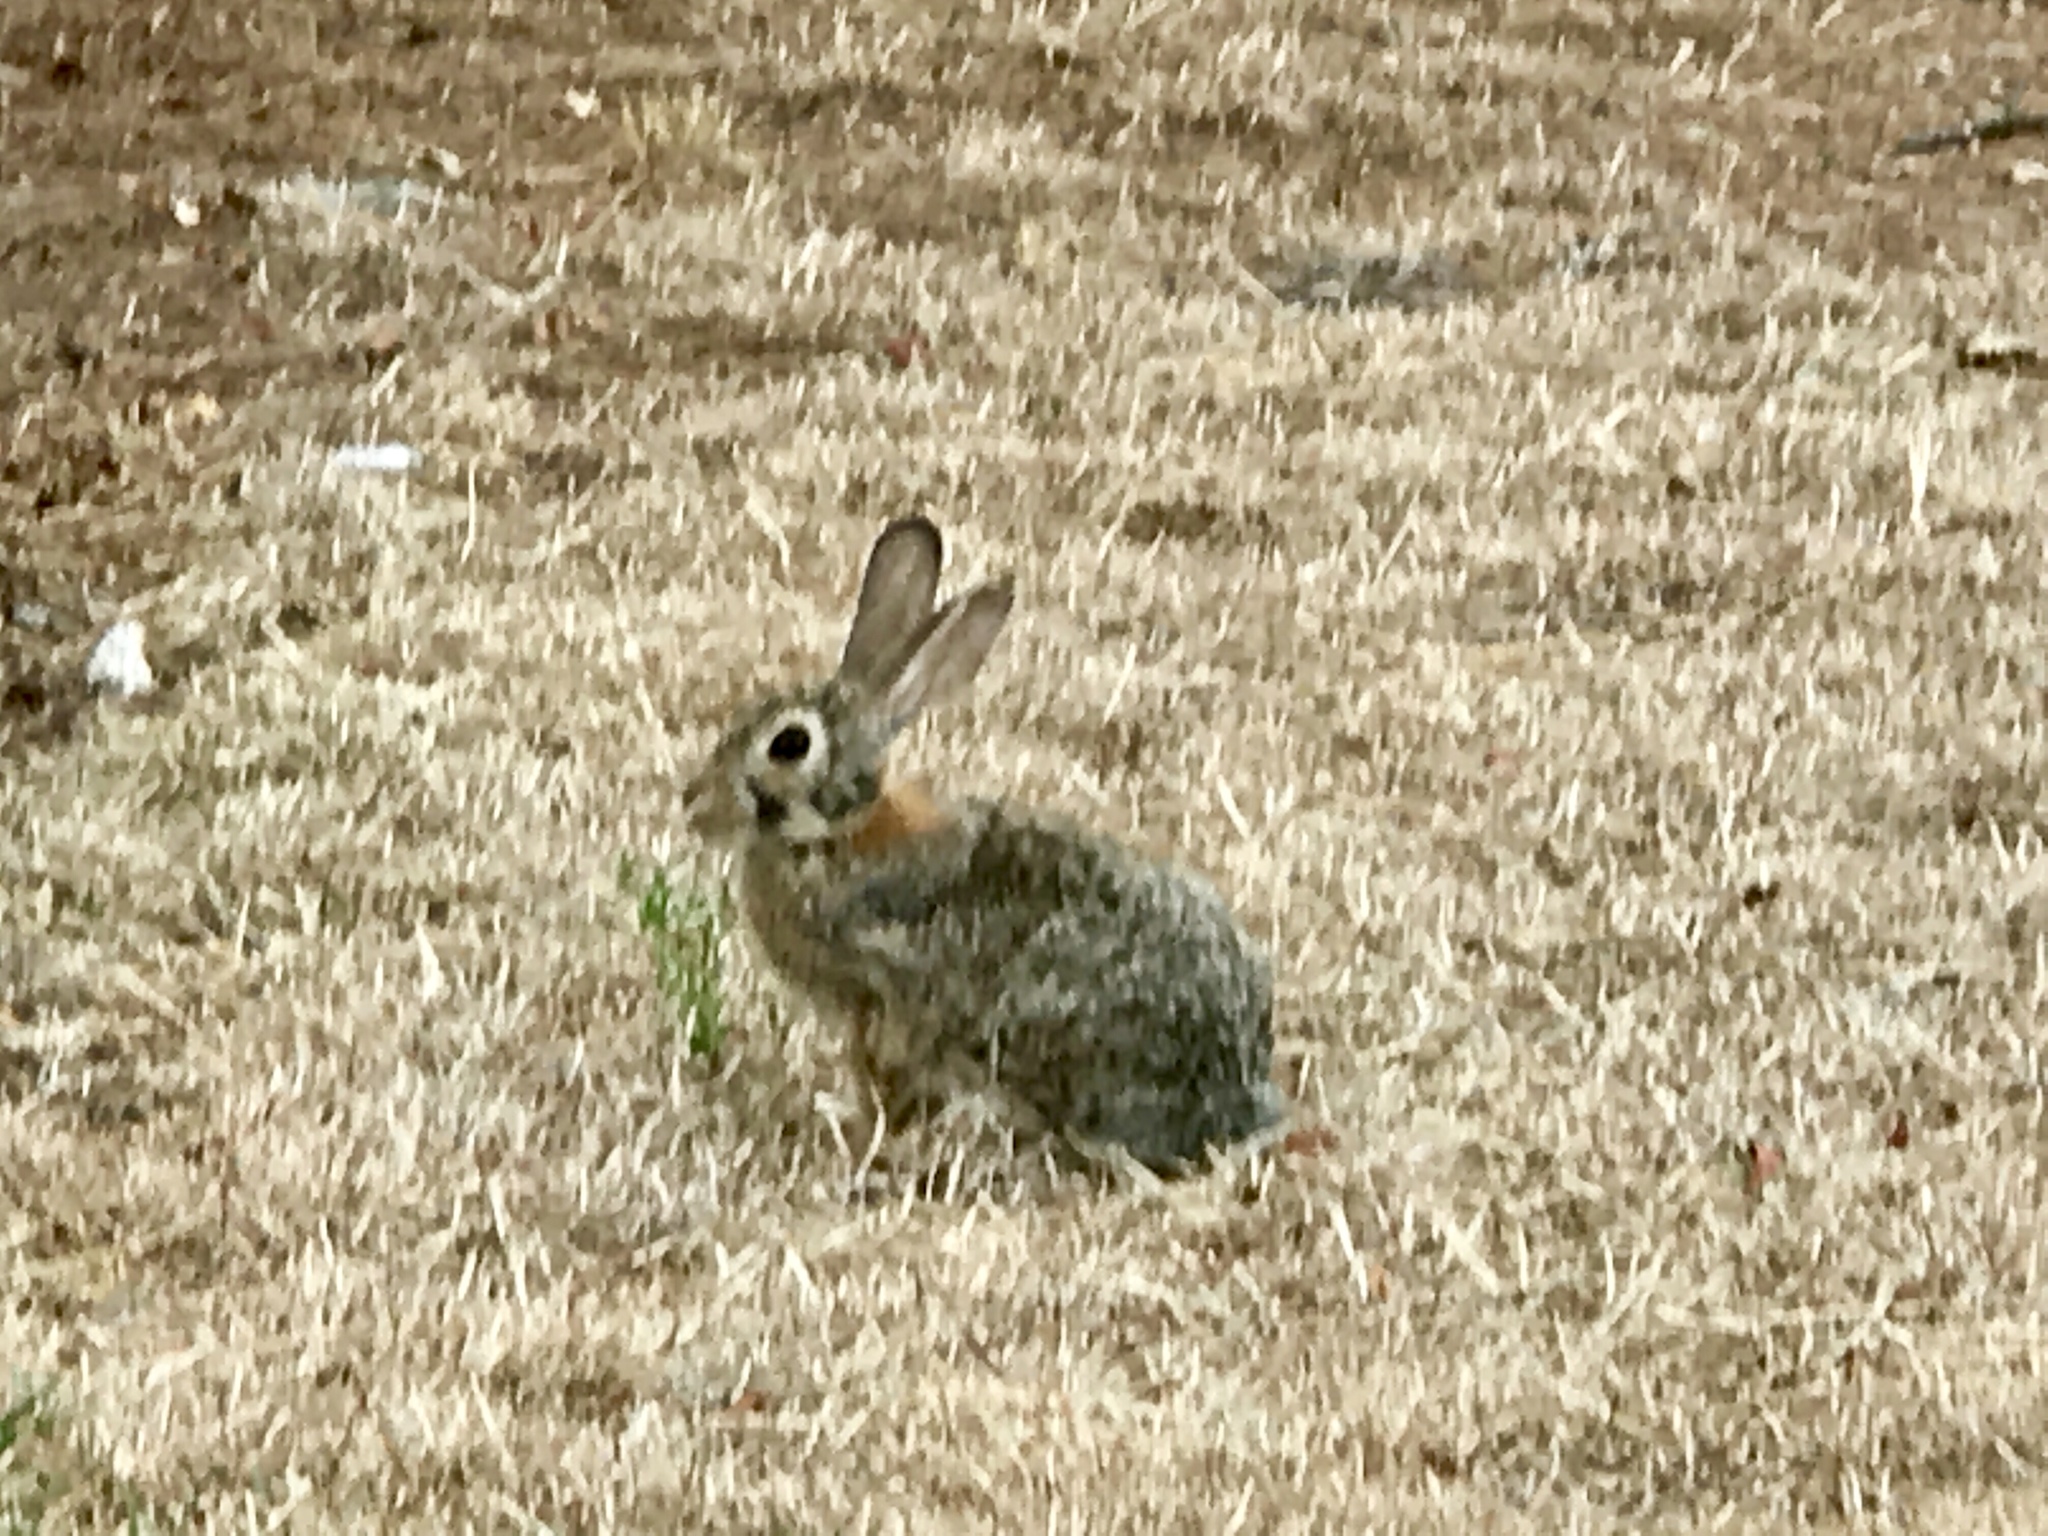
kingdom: Animalia
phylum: Chordata
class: Mammalia
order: Lagomorpha
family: Leporidae
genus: Sylvilagus
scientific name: Sylvilagus audubonii
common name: Desert cottontail
